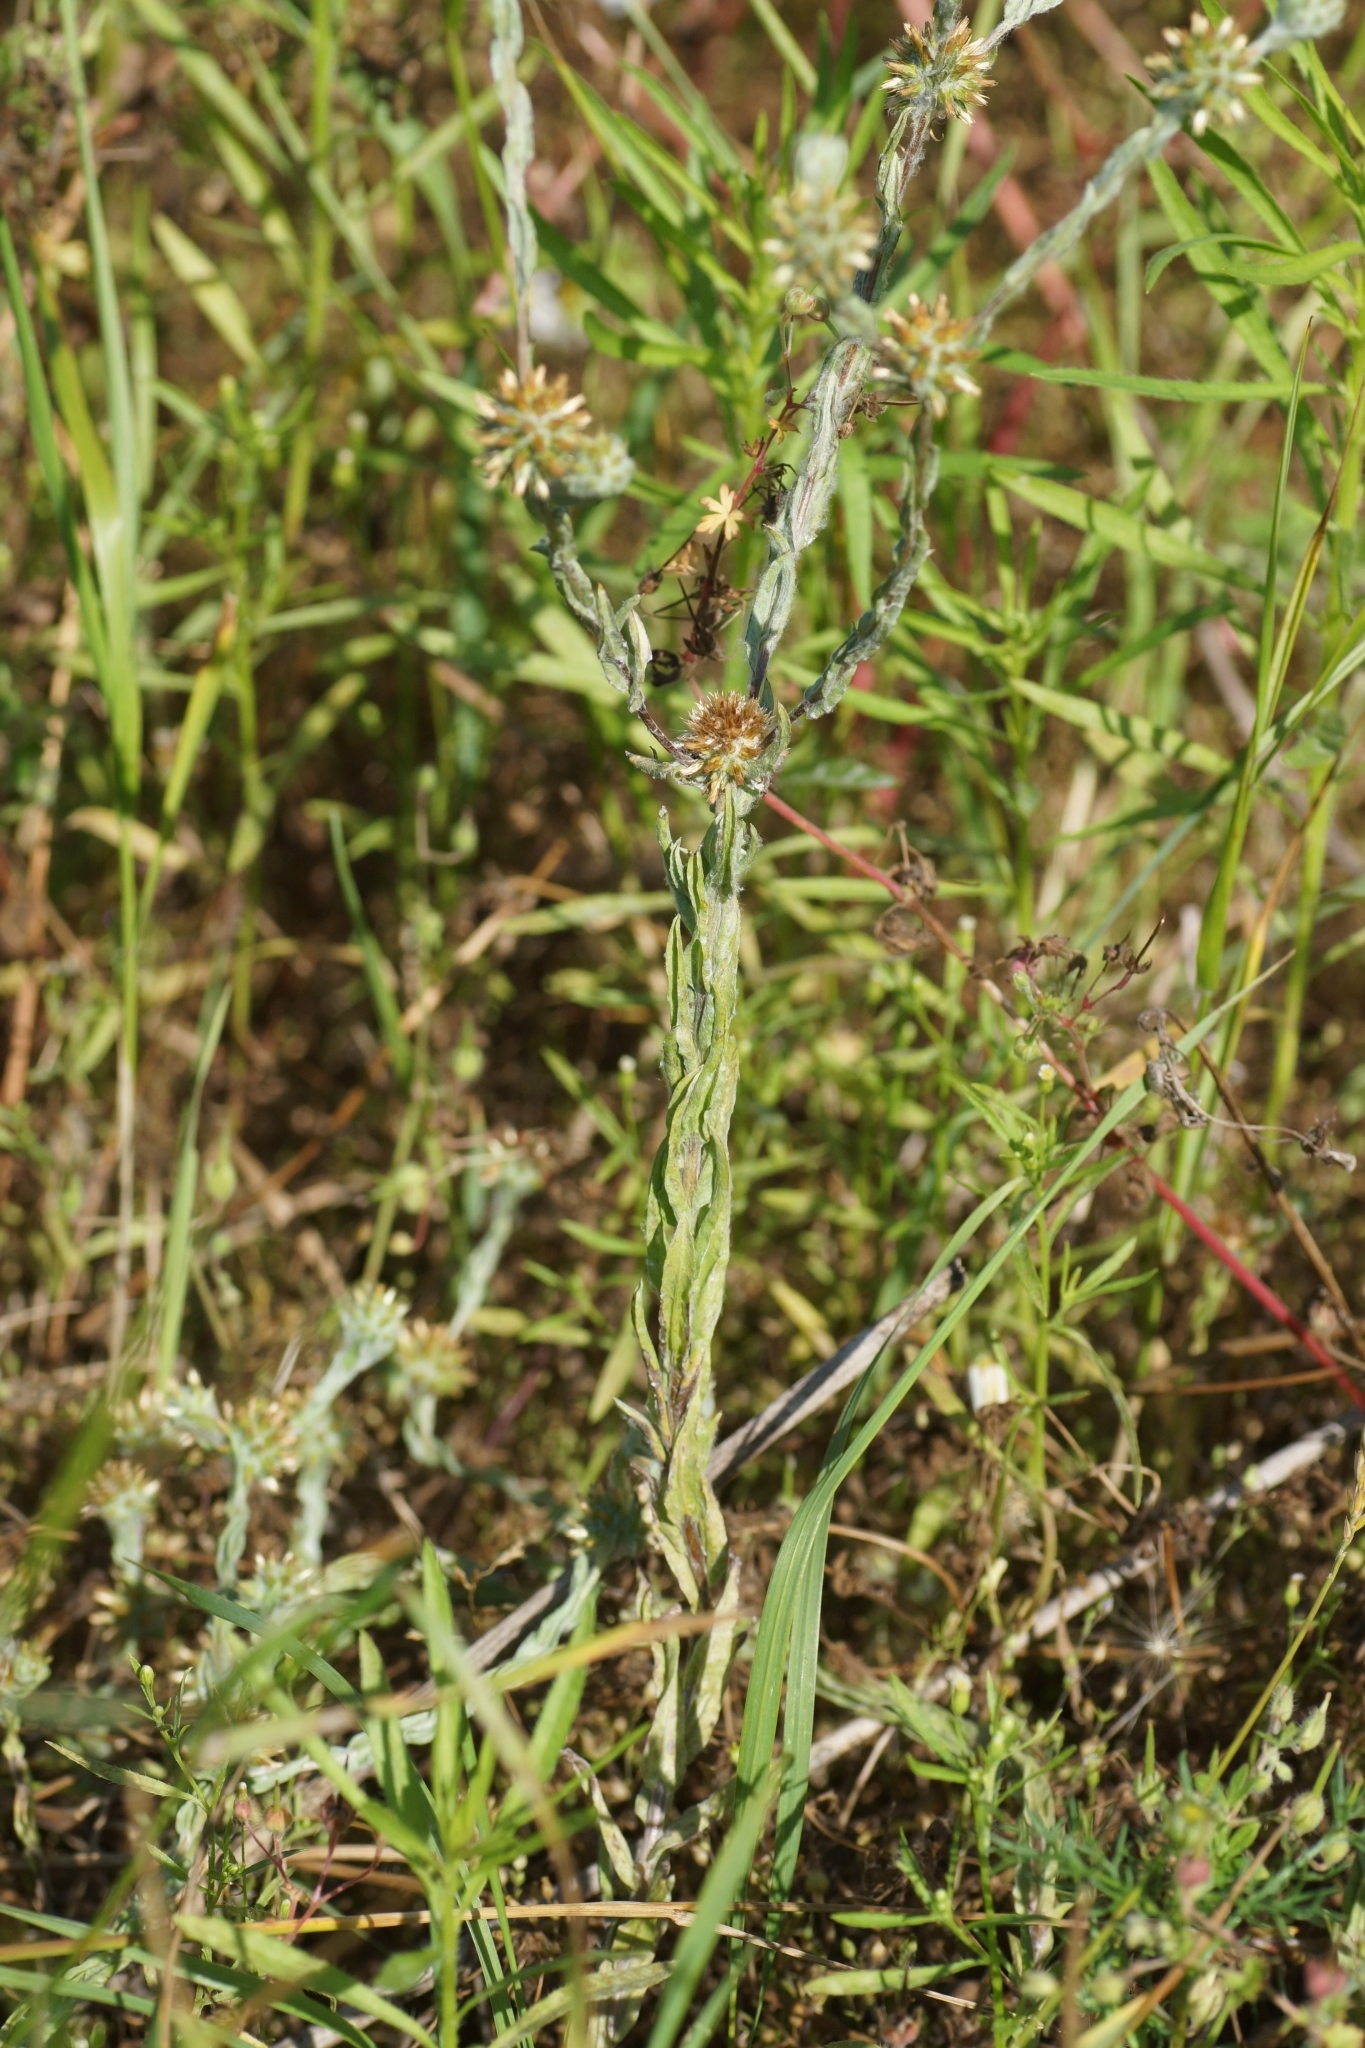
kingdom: Plantae
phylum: Tracheophyta
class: Magnoliopsida
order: Asterales
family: Asteraceae
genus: Filago
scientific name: Filago germanica
